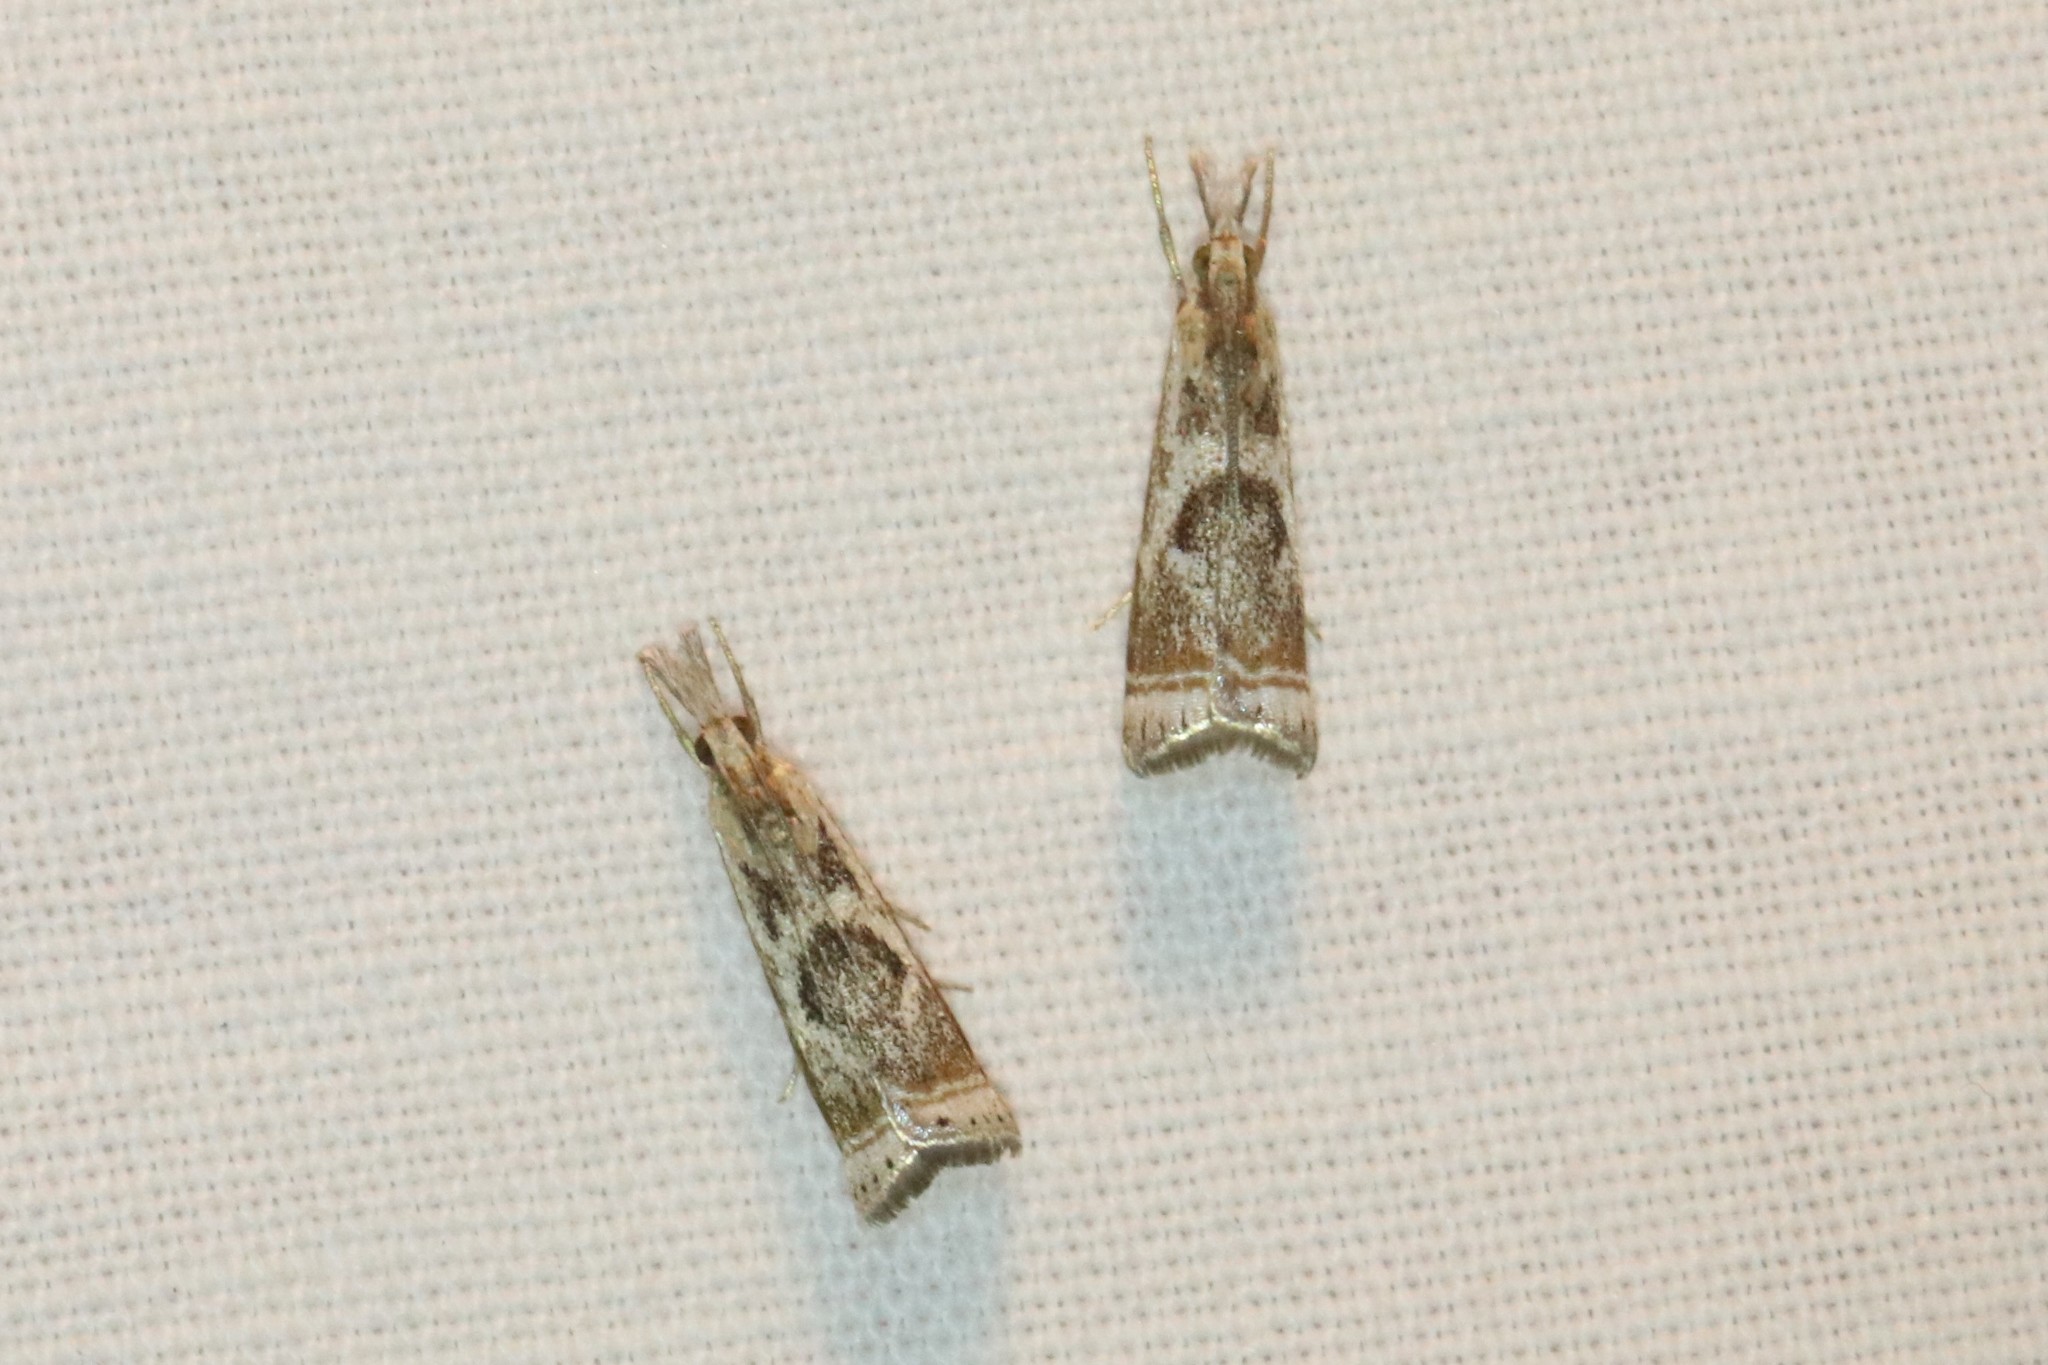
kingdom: Animalia
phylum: Arthropoda
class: Insecta
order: Lepidoptera
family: Crambidae
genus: Microcrambus
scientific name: Microcrambus elegans
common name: Elegant grass-veneer
